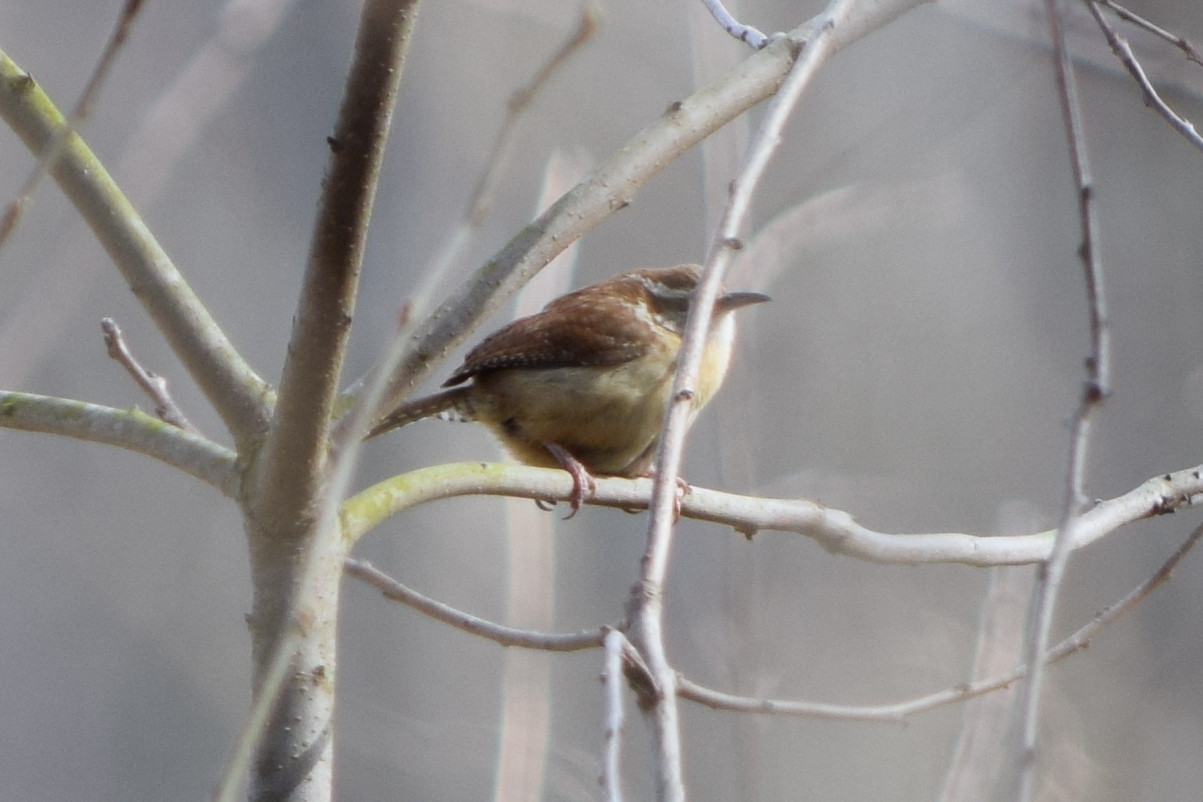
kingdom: Animalia
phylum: Chordata
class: Aves
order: Passeriformes
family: Troglodytidae
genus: Thryothorus
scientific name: Thryothorus ludovicianus
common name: Carolina wren
